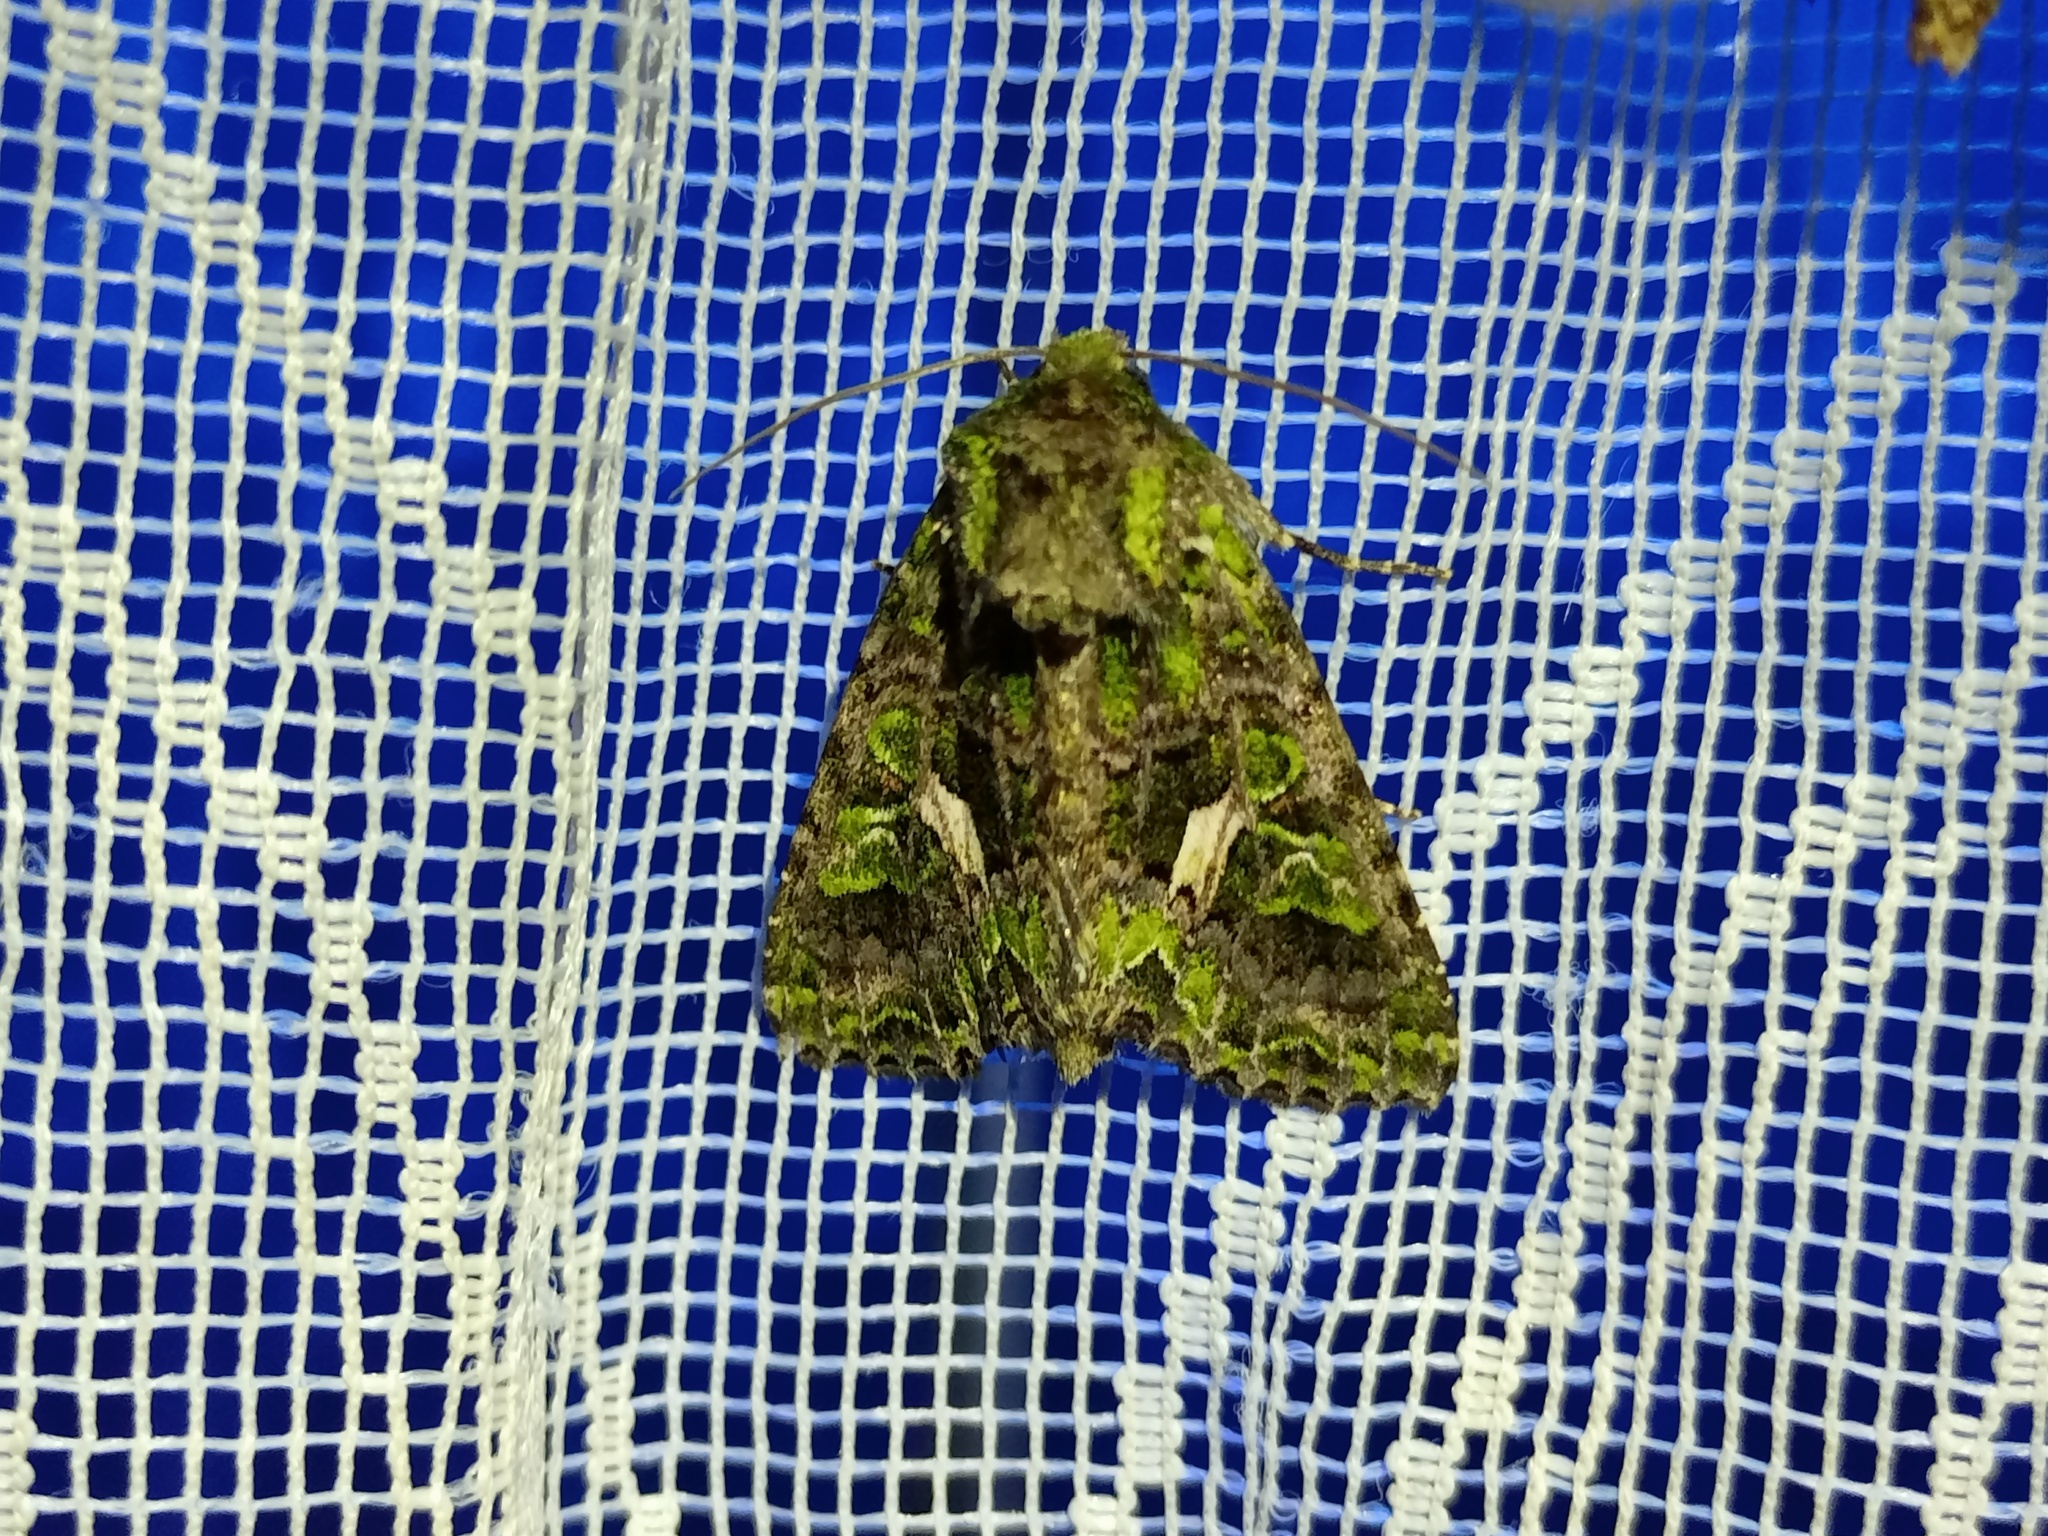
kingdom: Animalia
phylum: Arthropoda
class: Insecta
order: Lepidoptera
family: Noctuidae
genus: Trachea
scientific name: Trachea atriplicis
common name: Orache moth
